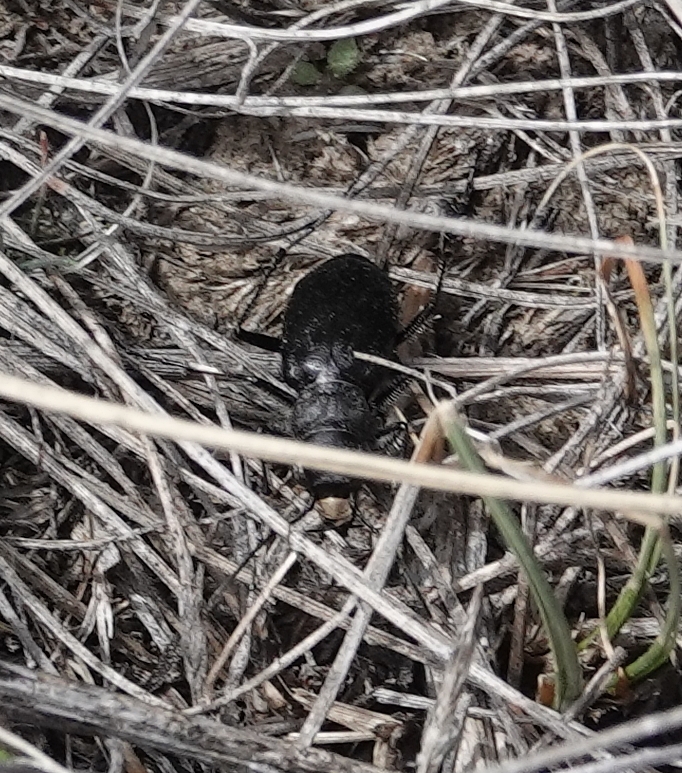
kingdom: Animalia
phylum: Arthropoda
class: Insecta
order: Coleoptera
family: Carabidae
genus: Cicindela
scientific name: Cicindela nebraskana
